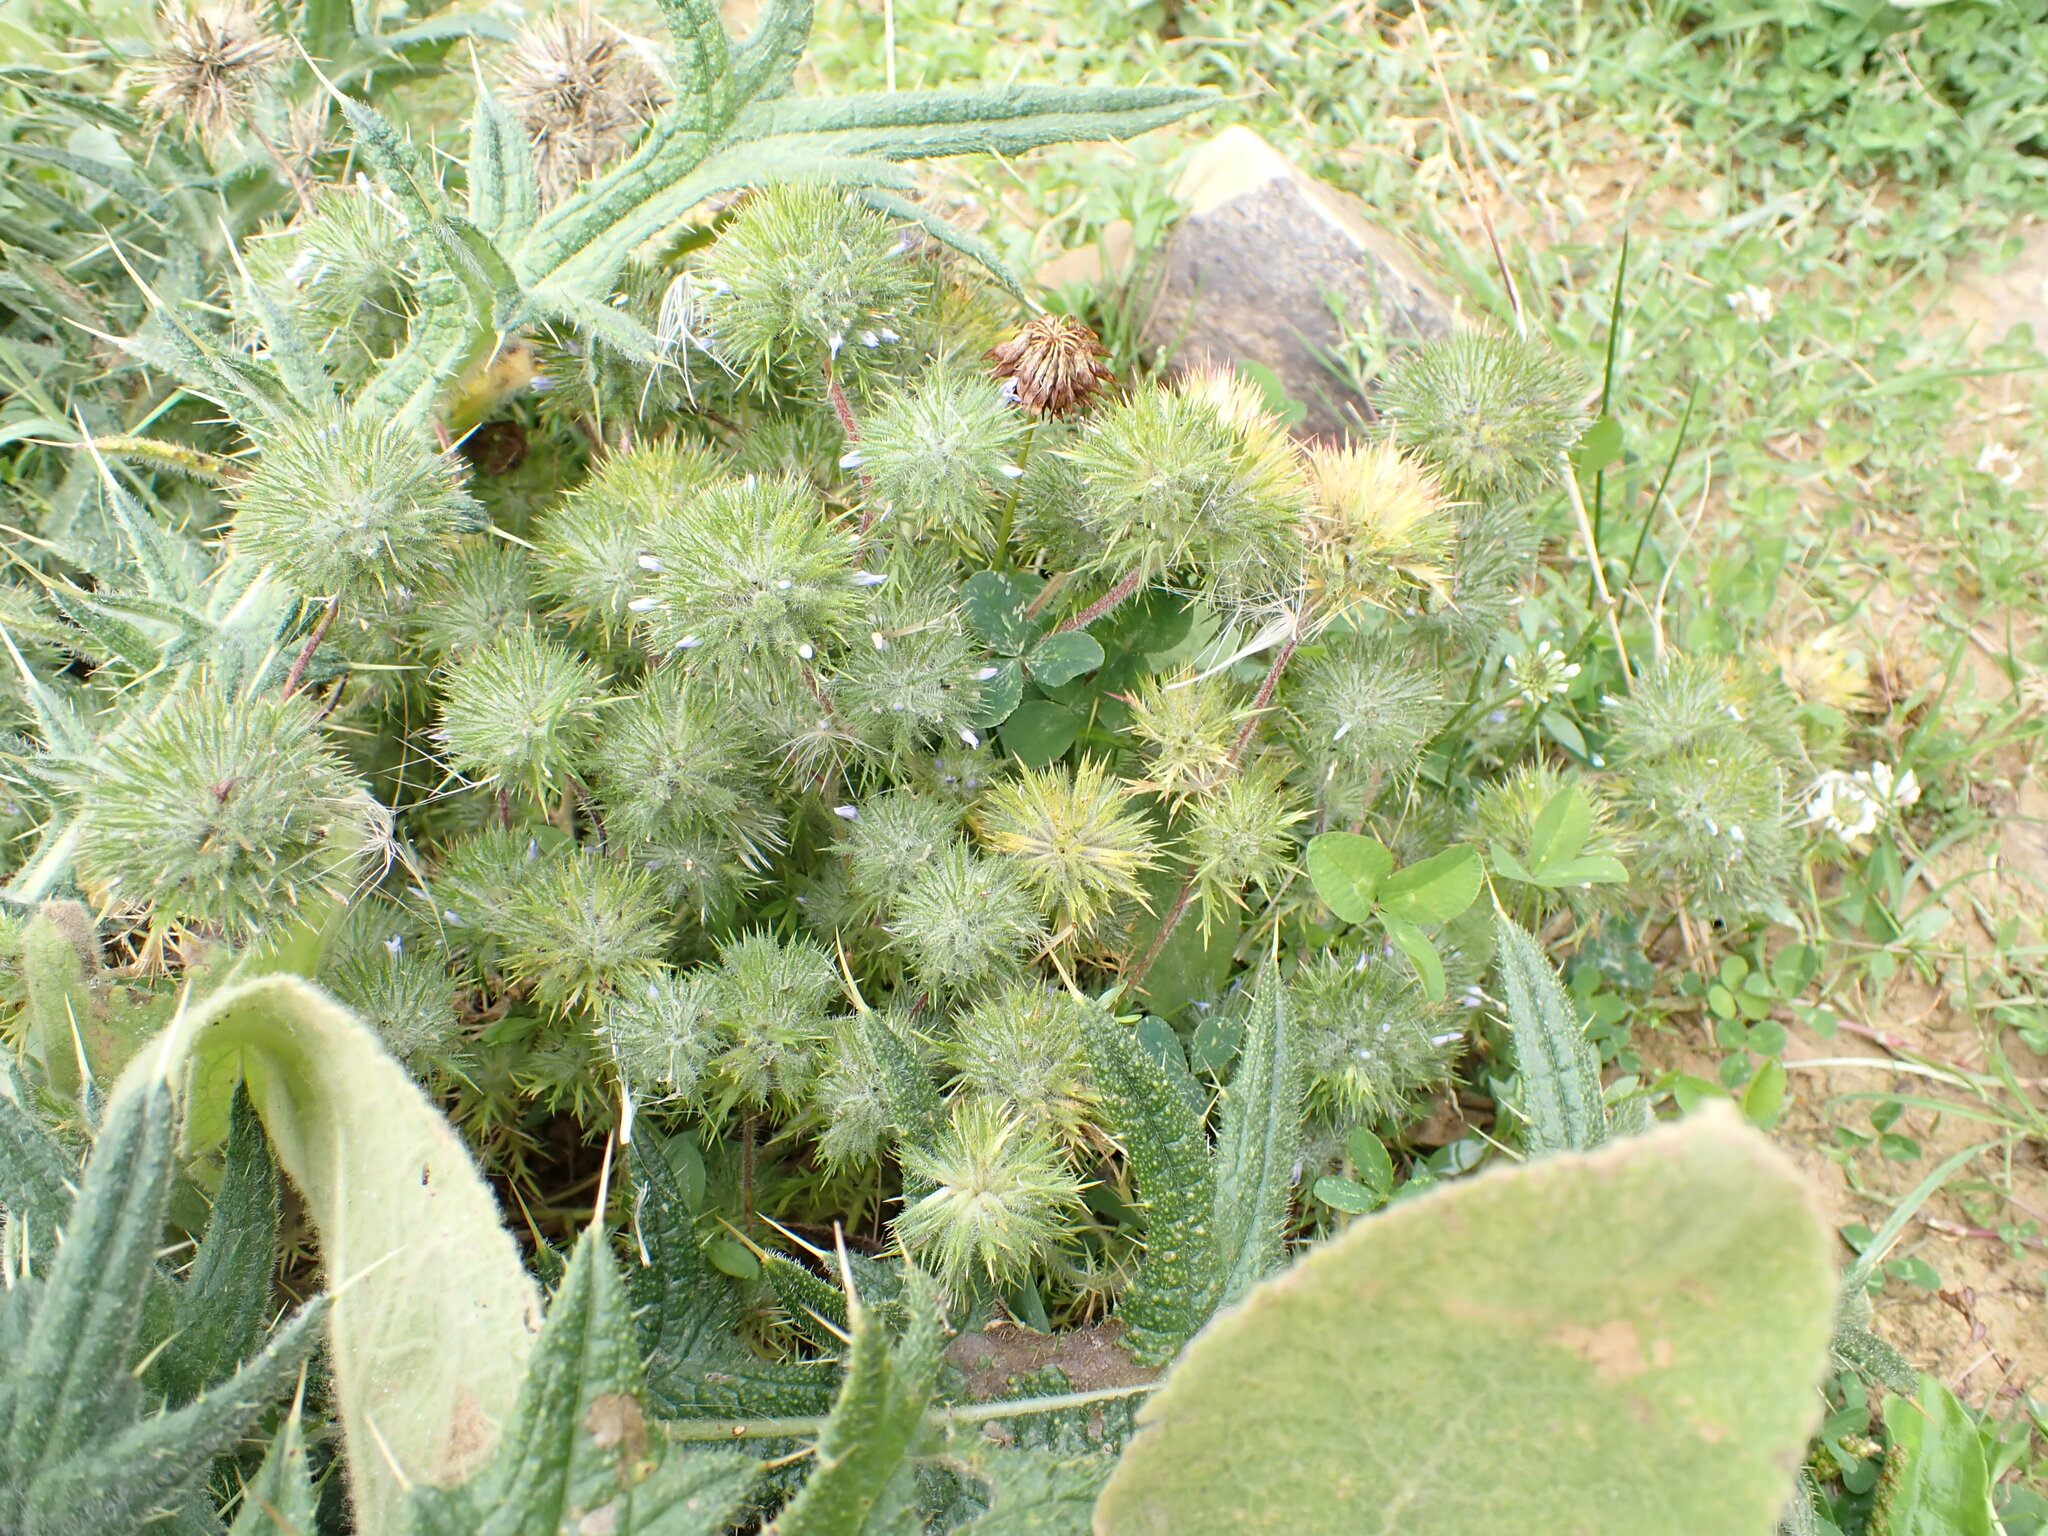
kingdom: Plantae
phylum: Tracheophyta
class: Magnoliopsida
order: Ericales
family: Polemoniaceae
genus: Navarretia
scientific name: Navarretia squarrosa
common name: Skunkweed
